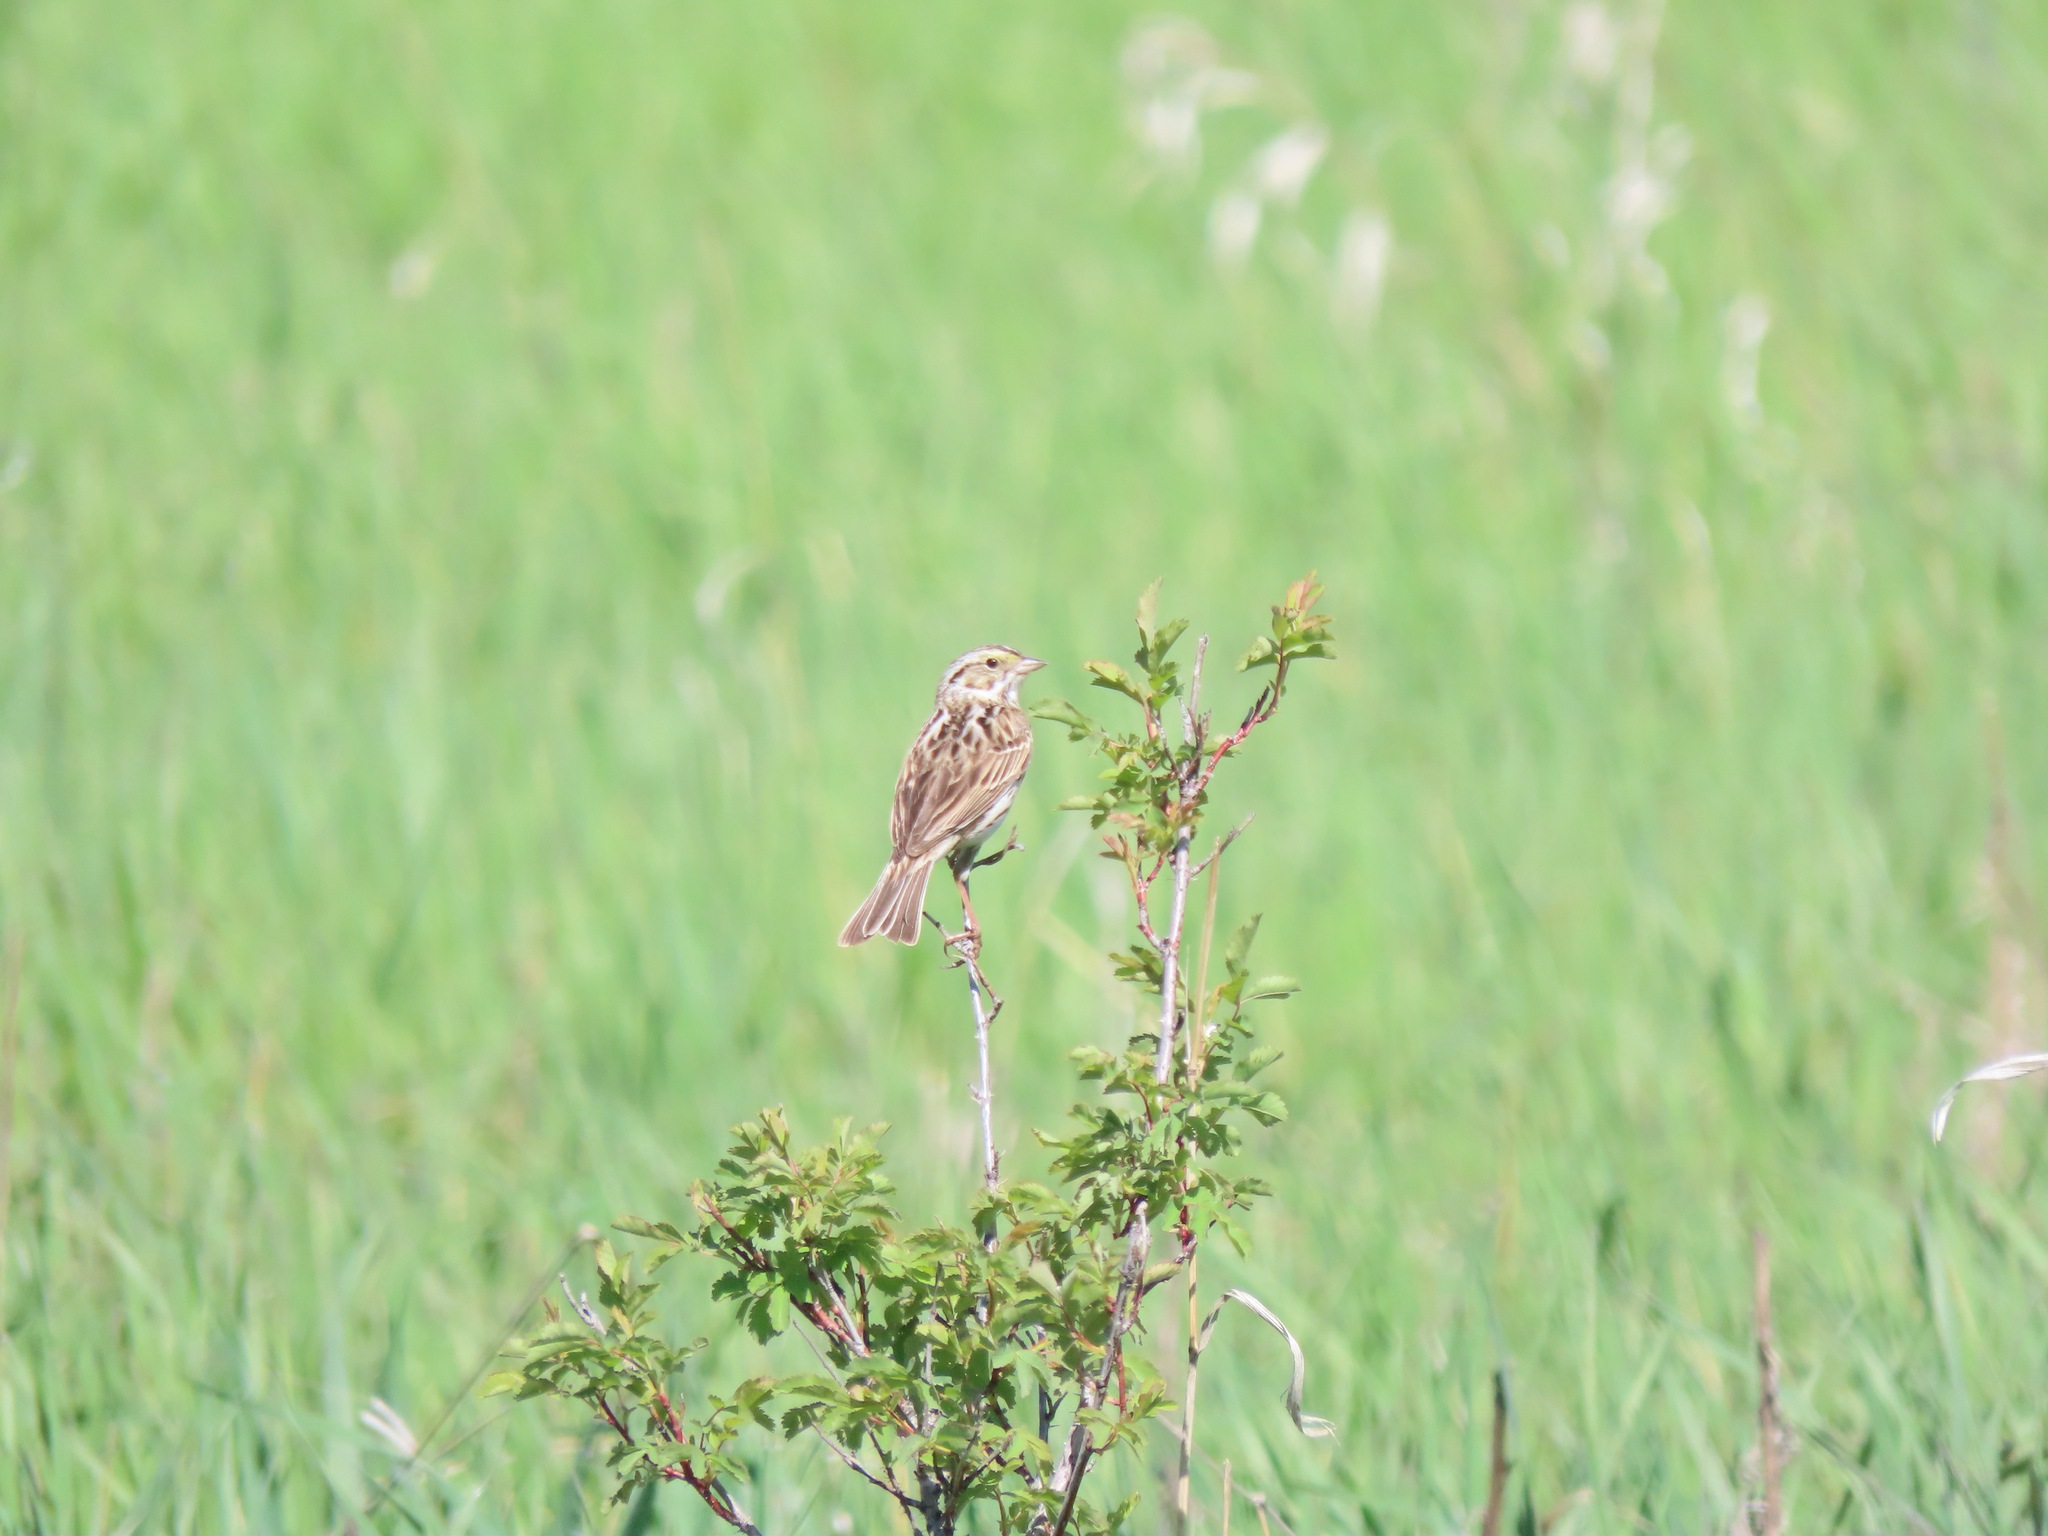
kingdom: Animalia
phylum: Chordata
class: Aves
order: Passeriformes
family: Passerellidae
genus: Passerculus
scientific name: Passerculus sandwichensis
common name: Savannah sparrow
